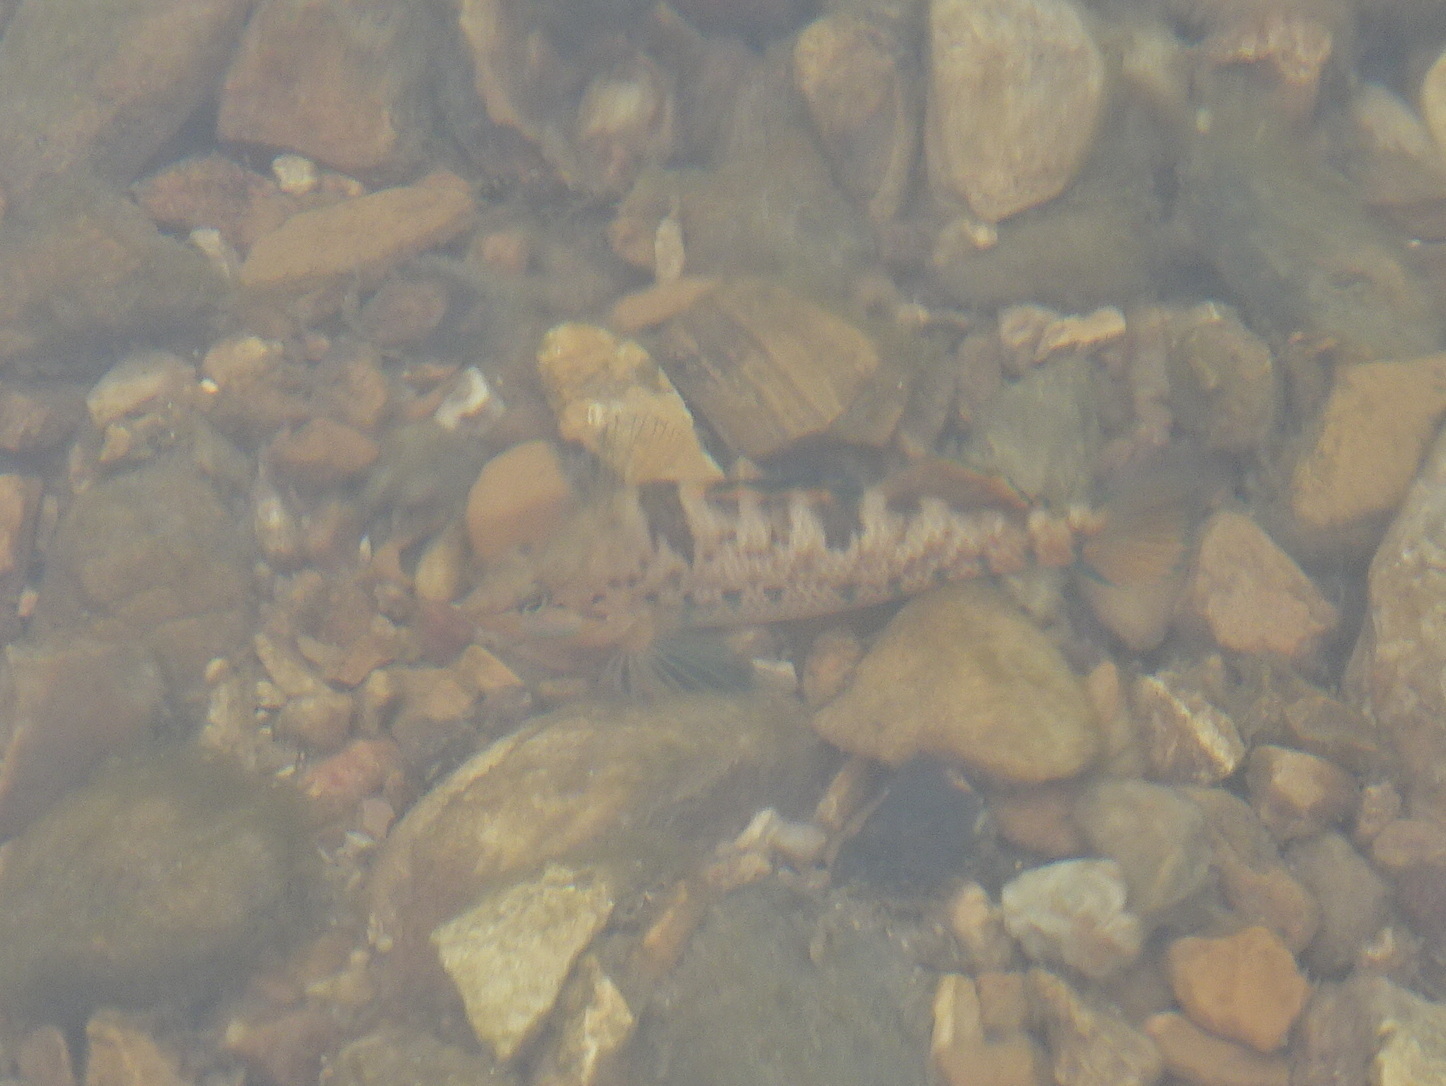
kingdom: Animalia
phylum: Chordata
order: Perciformes
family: Percidae
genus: Etheostoma
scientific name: Etheostoma caeruleum
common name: Rainbow darter
